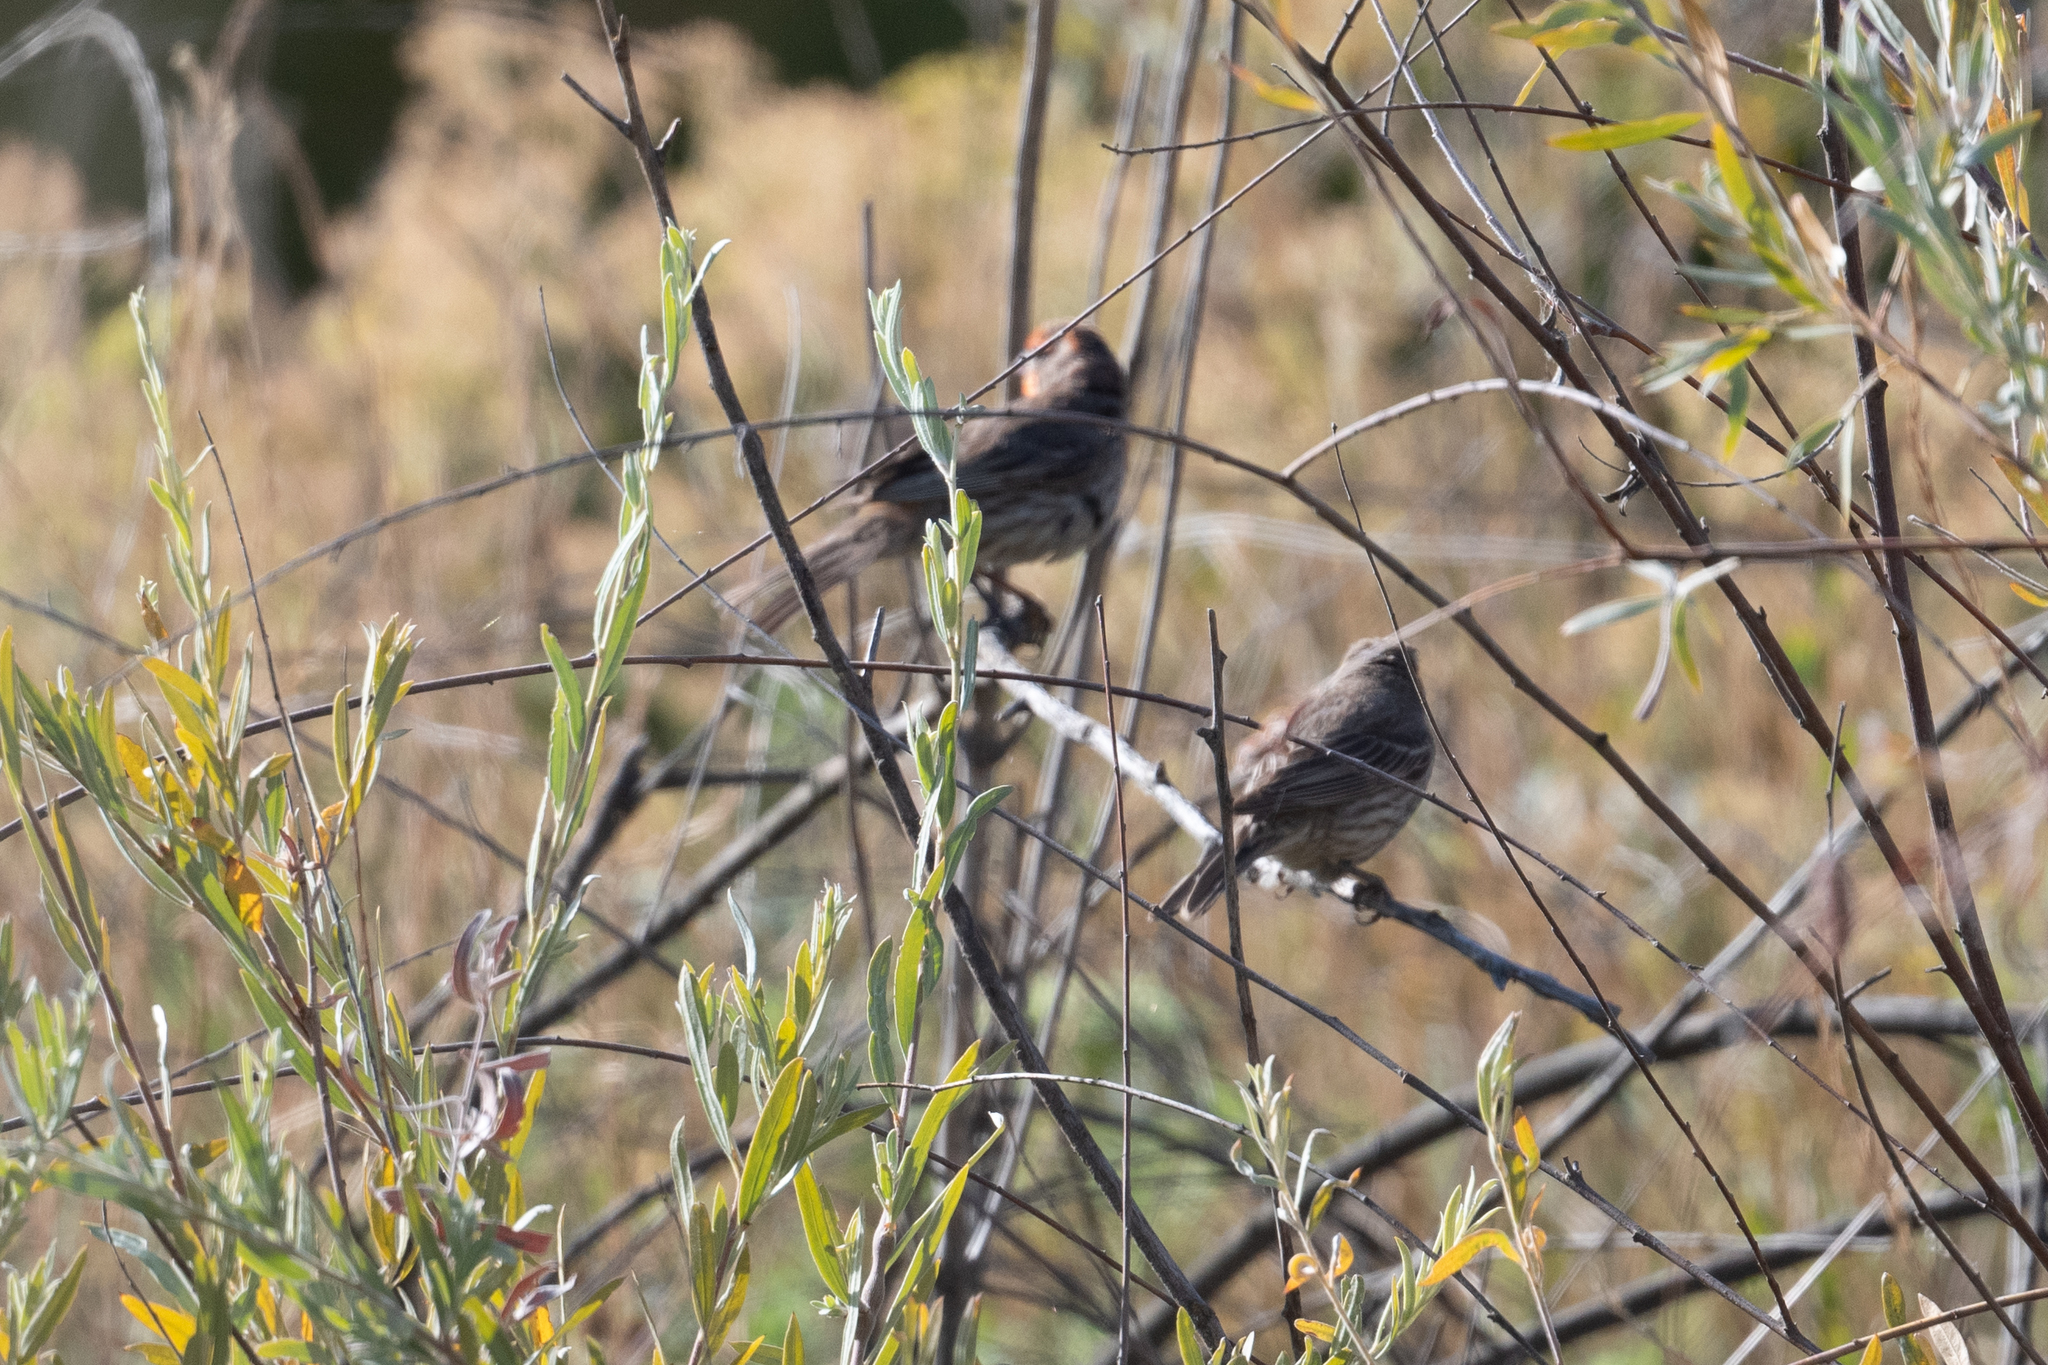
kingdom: Animalia
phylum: Chordata
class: Aves
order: Passeriformes
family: Fringillidae
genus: Haemorhous
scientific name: Haemorhous mexicanus
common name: House finch
